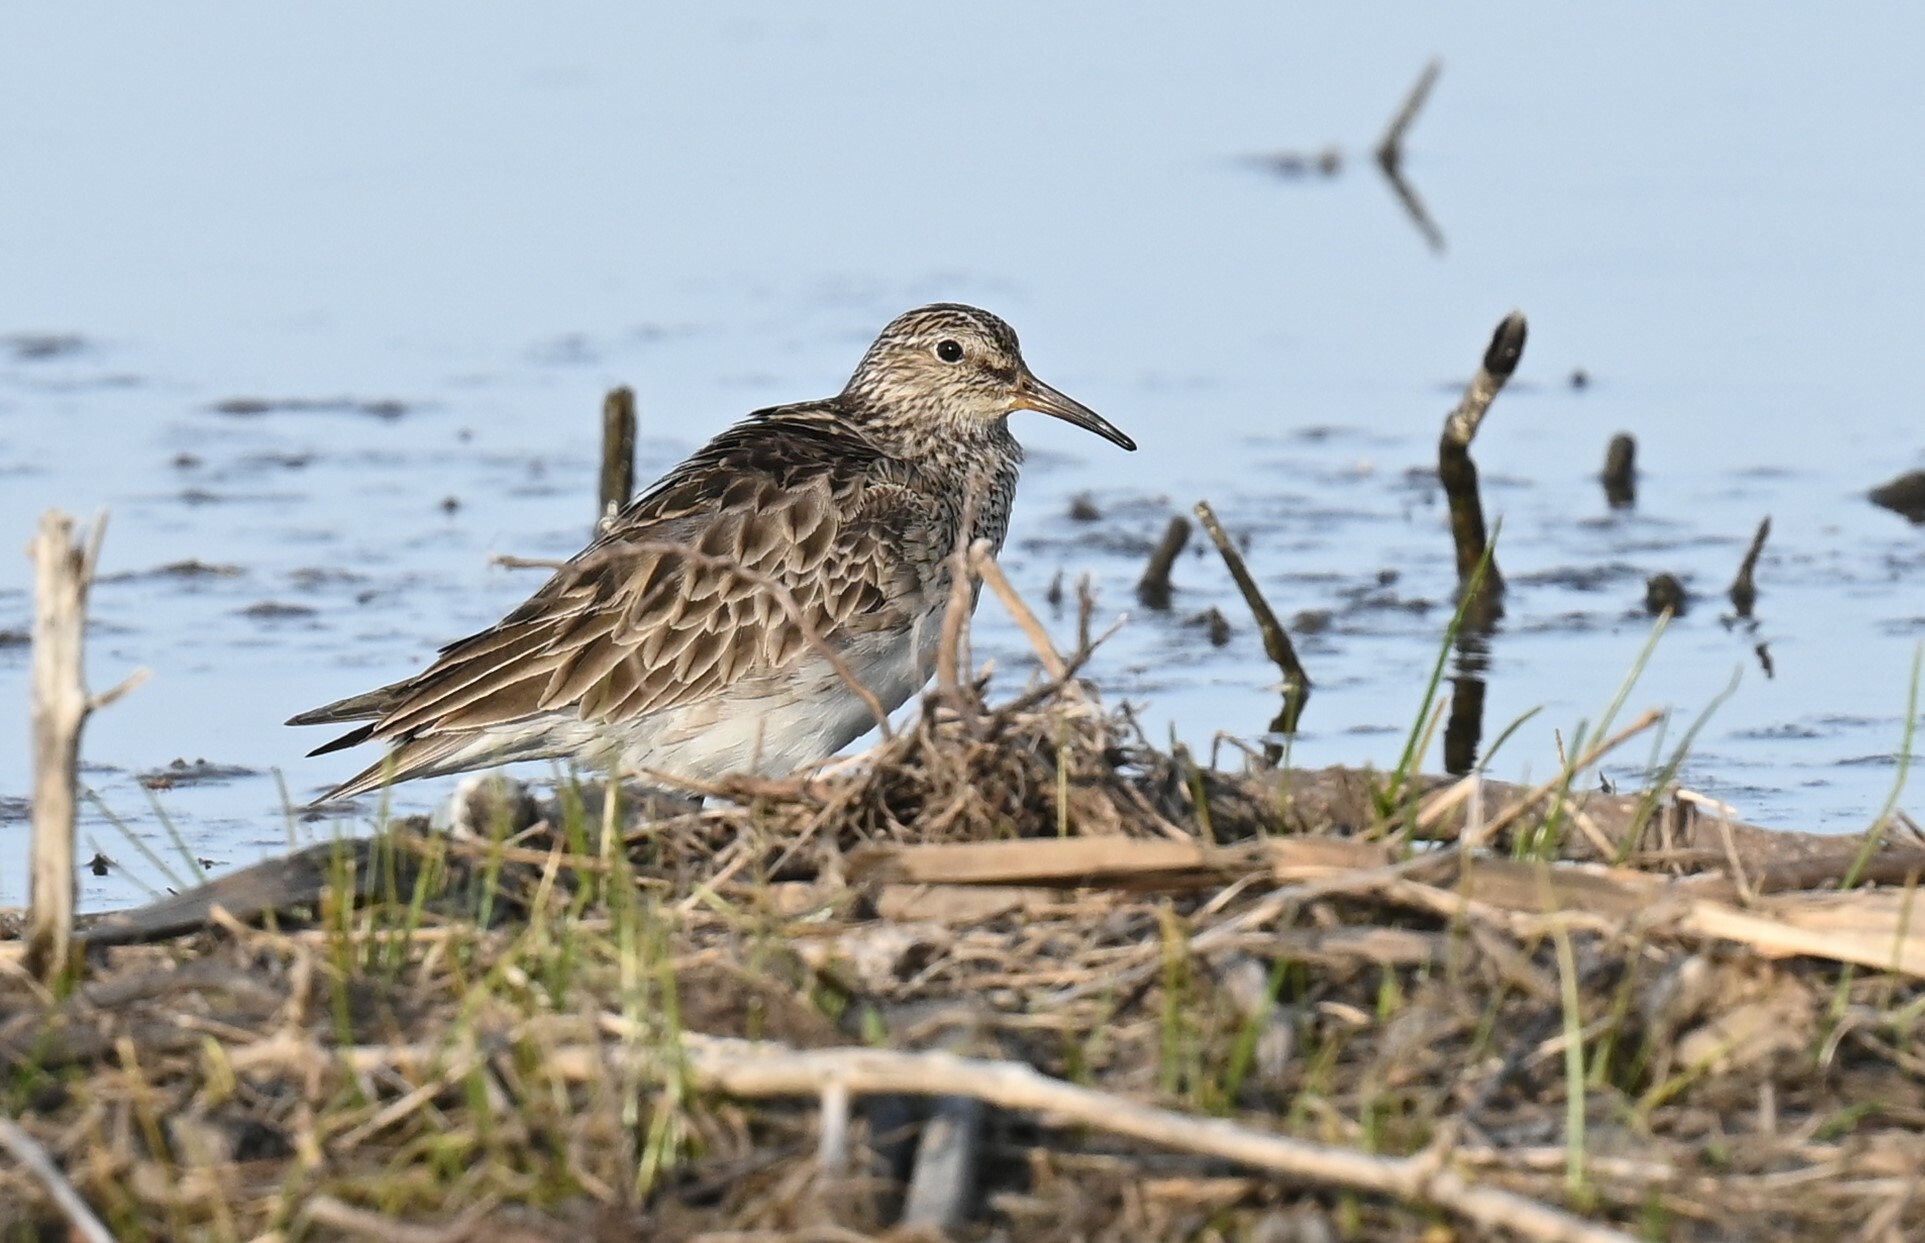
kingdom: Animalia
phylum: Chordata
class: Aves
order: Charadriiformes
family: Scolopacidae
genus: Calidris
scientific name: Calidris melanotos
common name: Pectoral sandpiper
